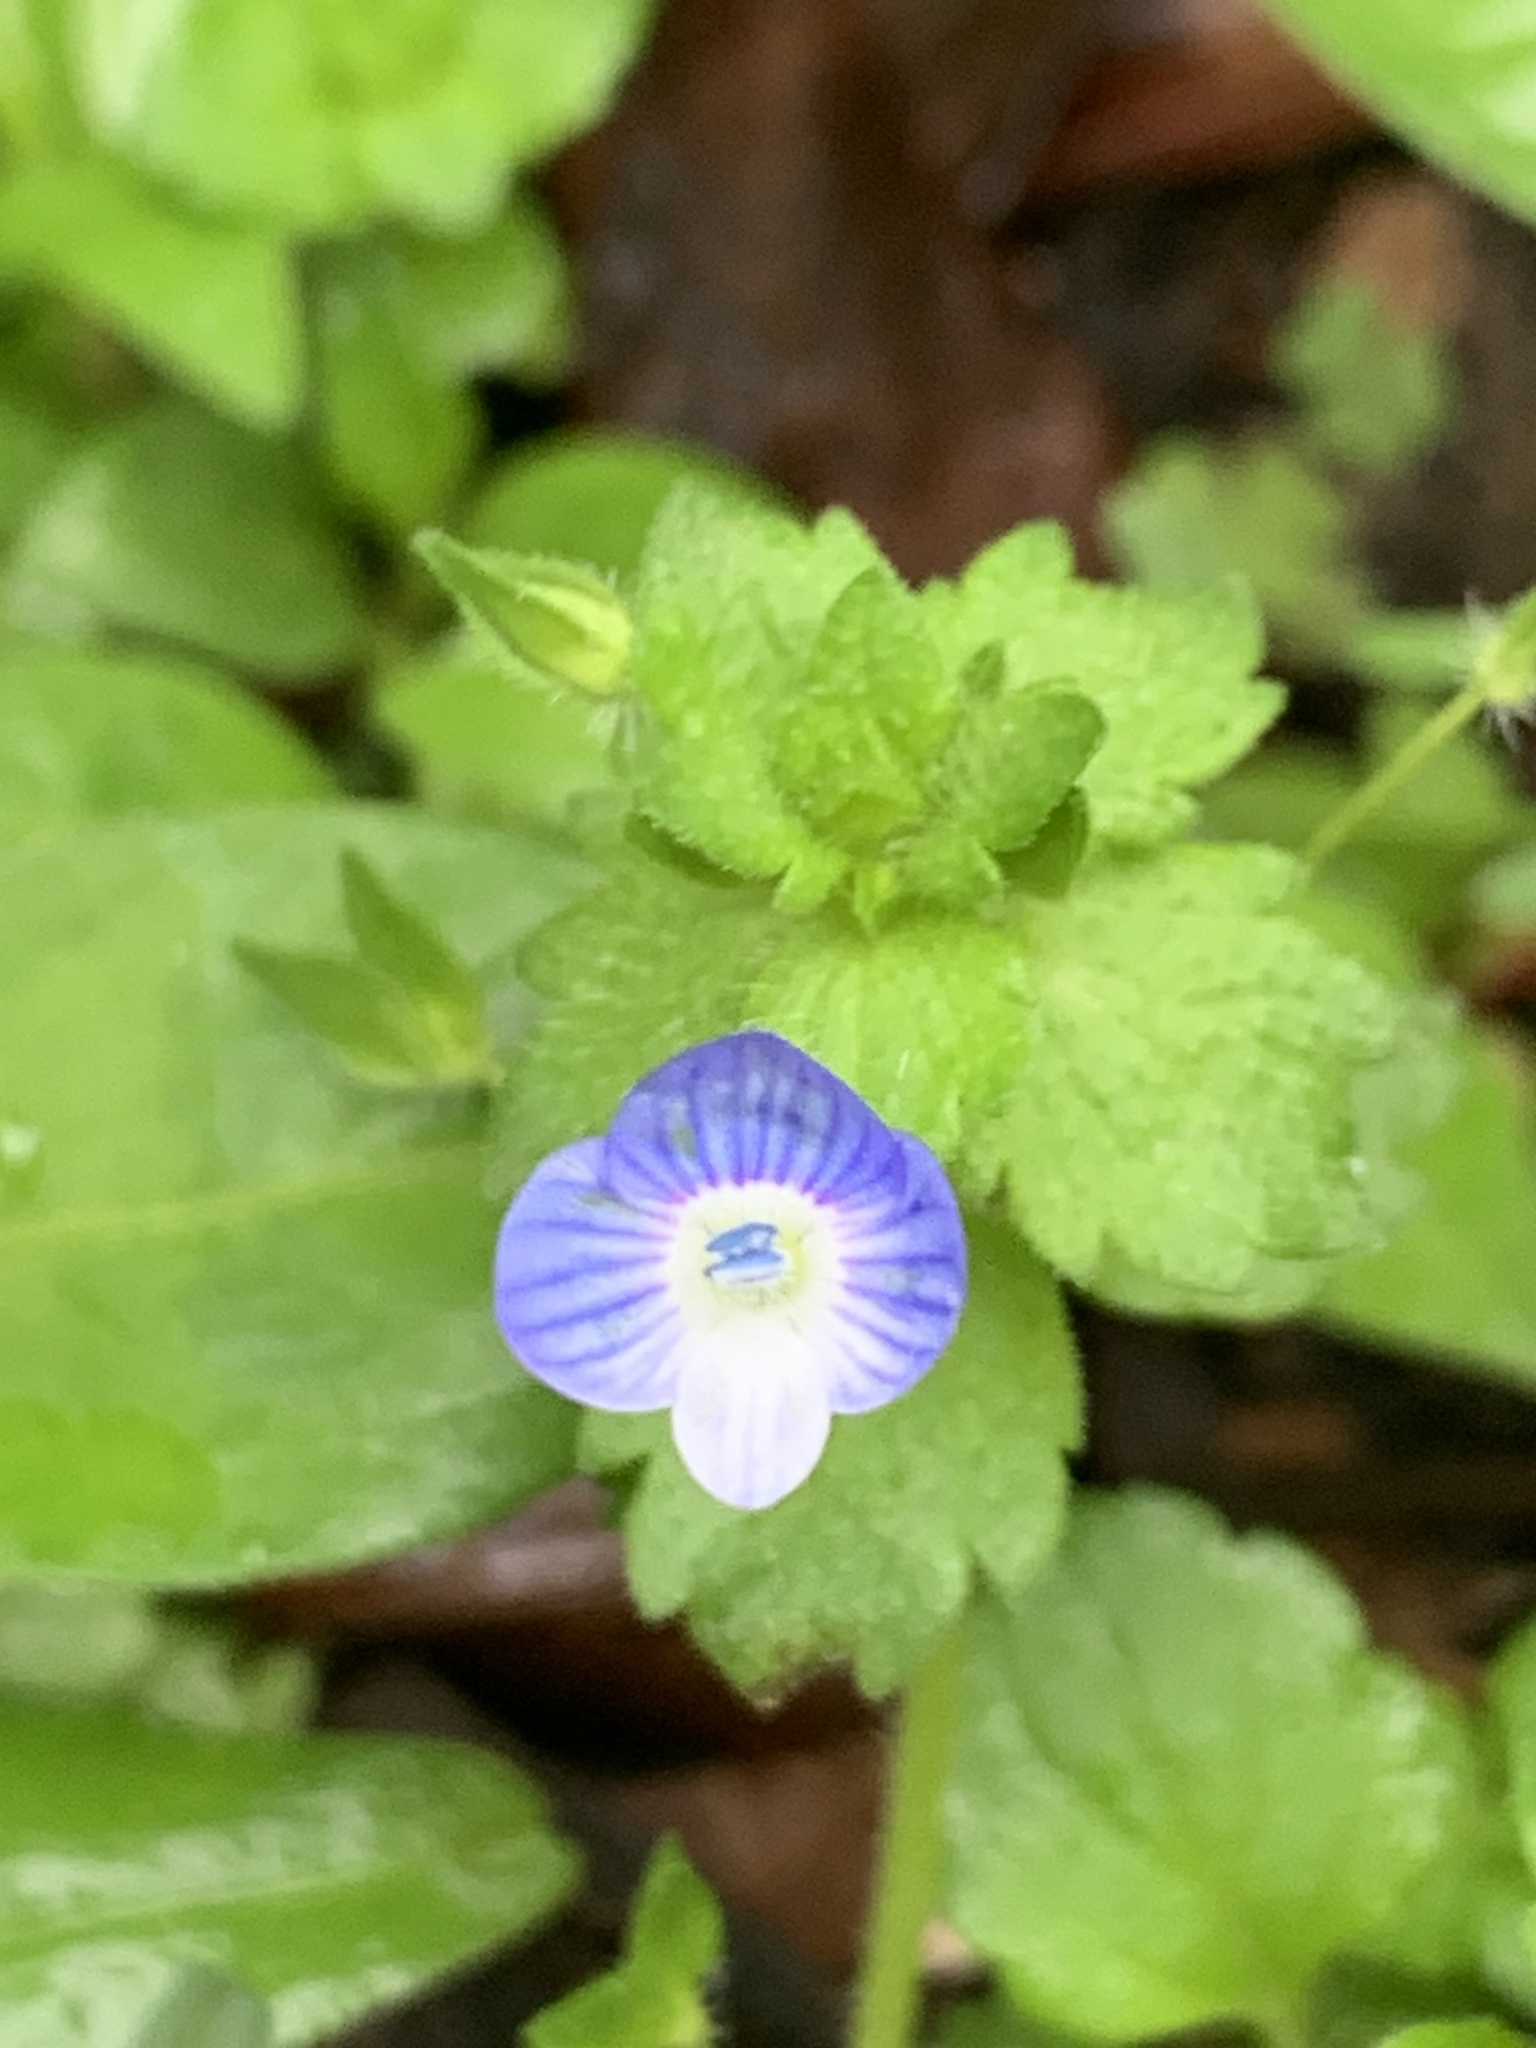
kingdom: Plantae
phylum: Tracheophyta
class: Magnoliopsida
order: Lamiales
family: Plantaginaceae
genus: Veronica
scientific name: Veronica persica
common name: Common field-speedwell
